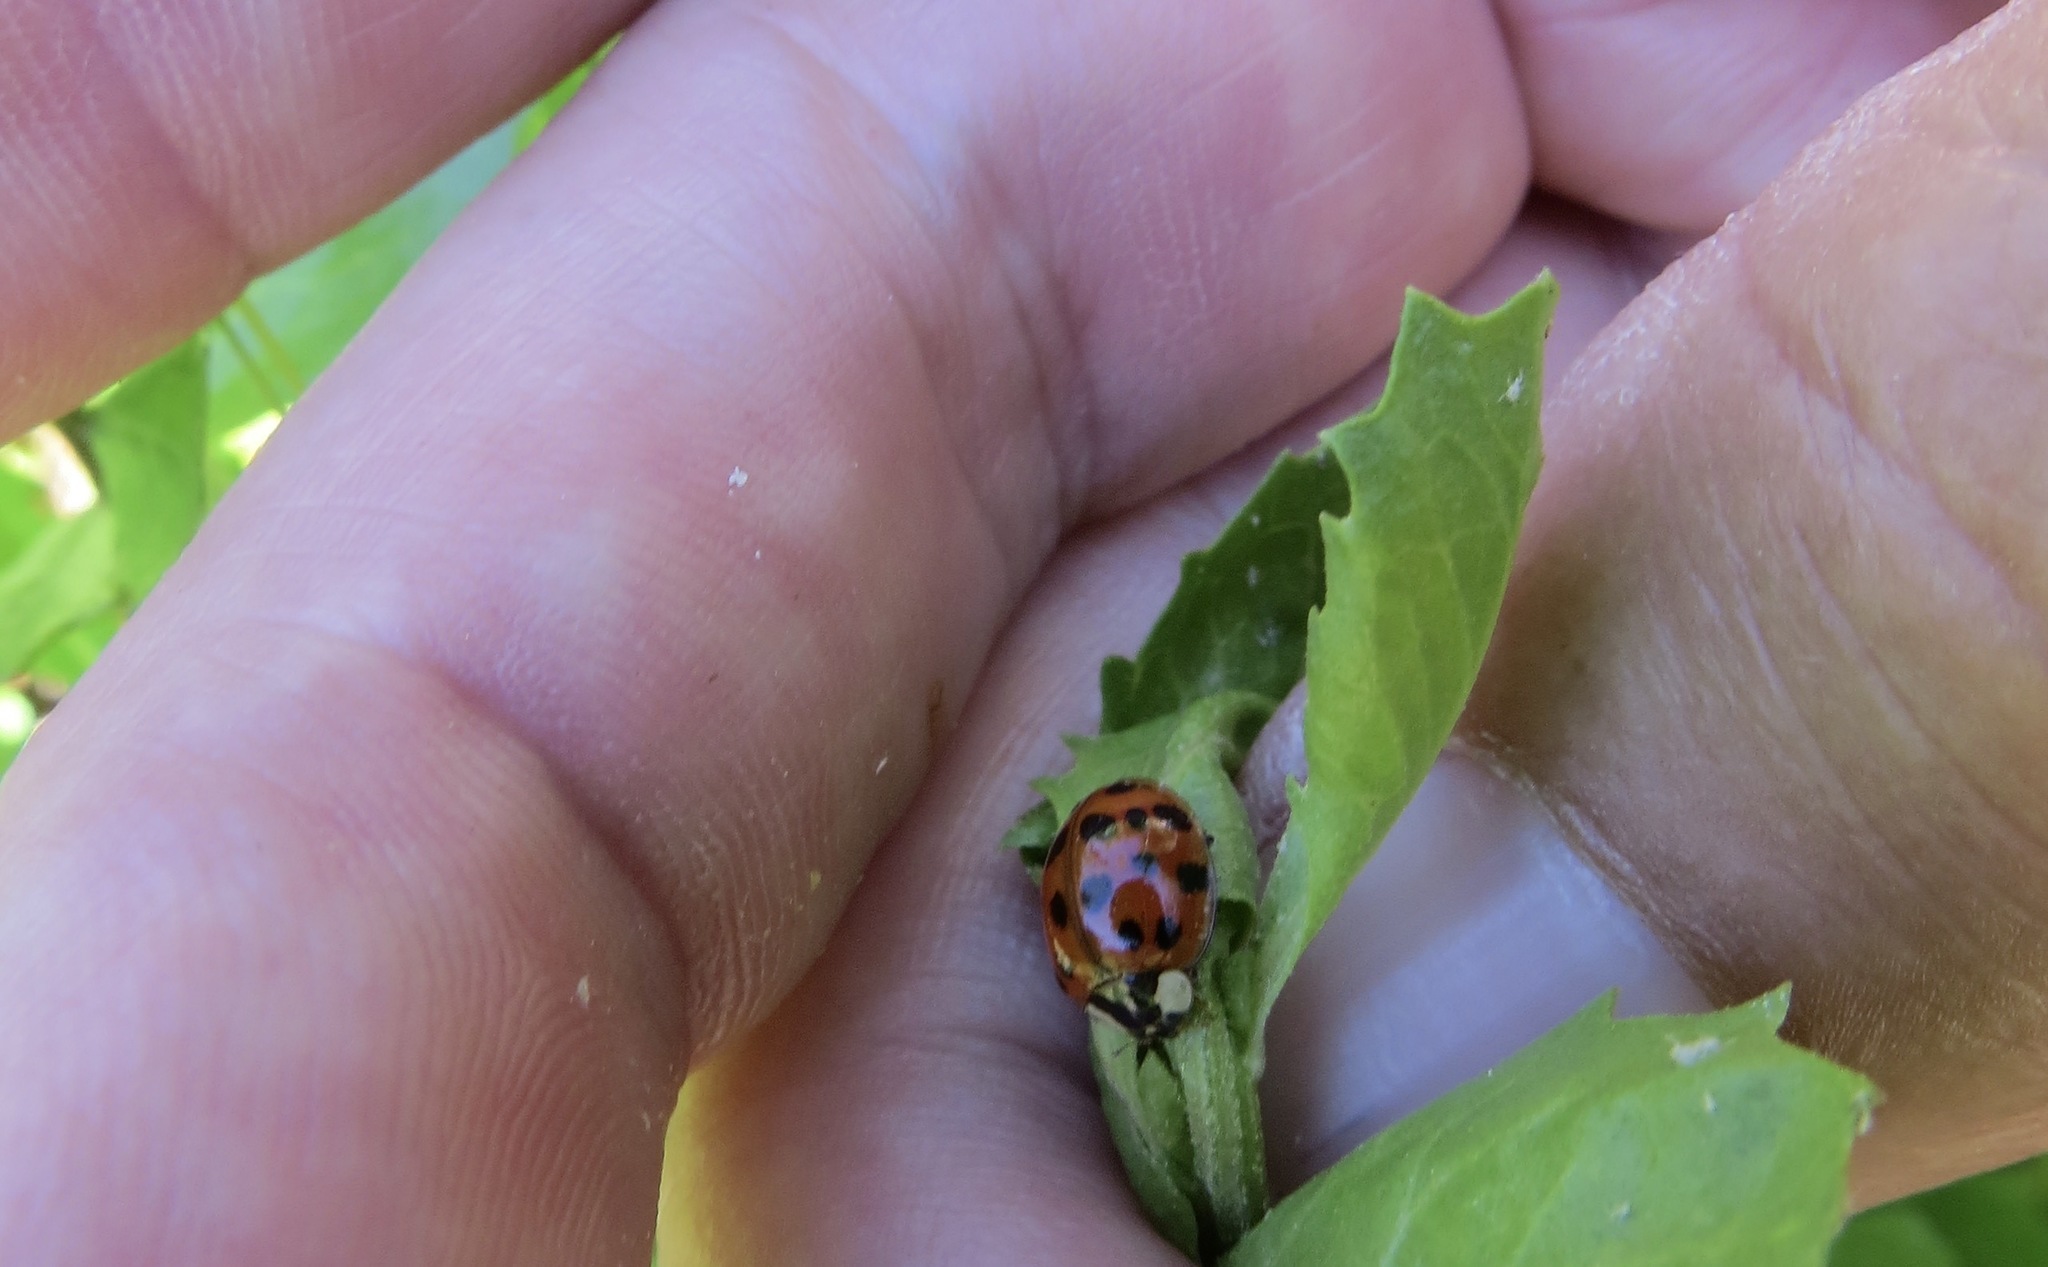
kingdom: Animalia
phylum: Arthropoda
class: Insecta
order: Coleoptera
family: Coccinellidae
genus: Harmonia
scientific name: Harmonia axyridis
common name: Harlequin ladybird
